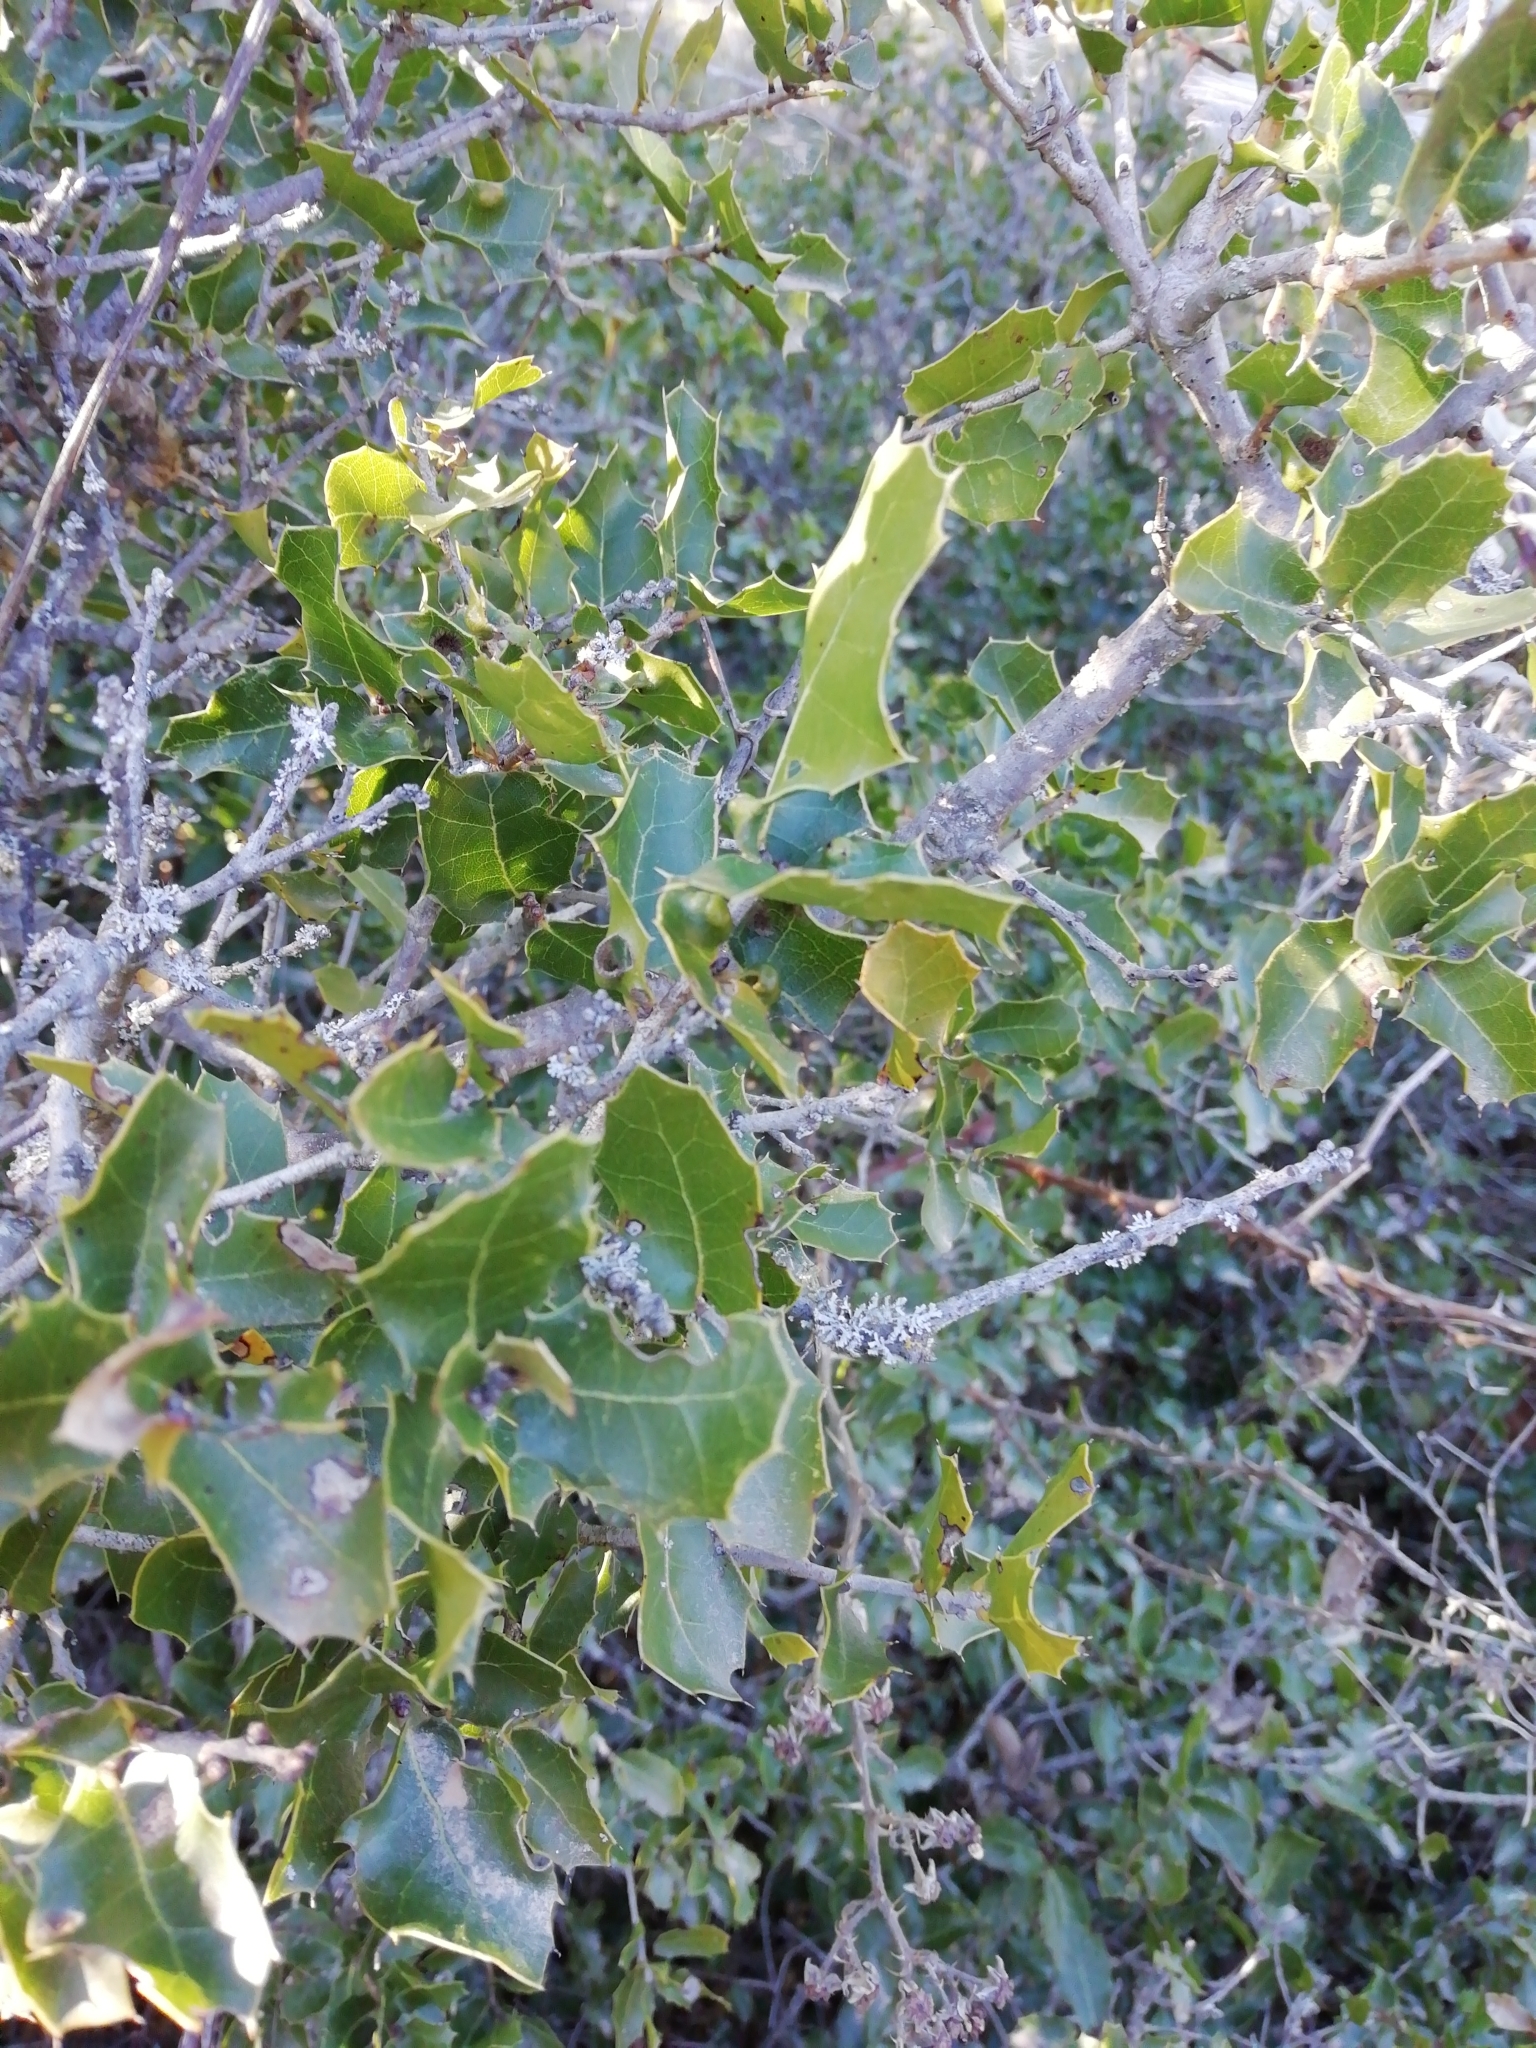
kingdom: Plantae
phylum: Tracheophyta
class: Magnoliopsida
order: Fagales
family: Fagaceae
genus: Quercus
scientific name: Quercus coccifera
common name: Kermes oak
